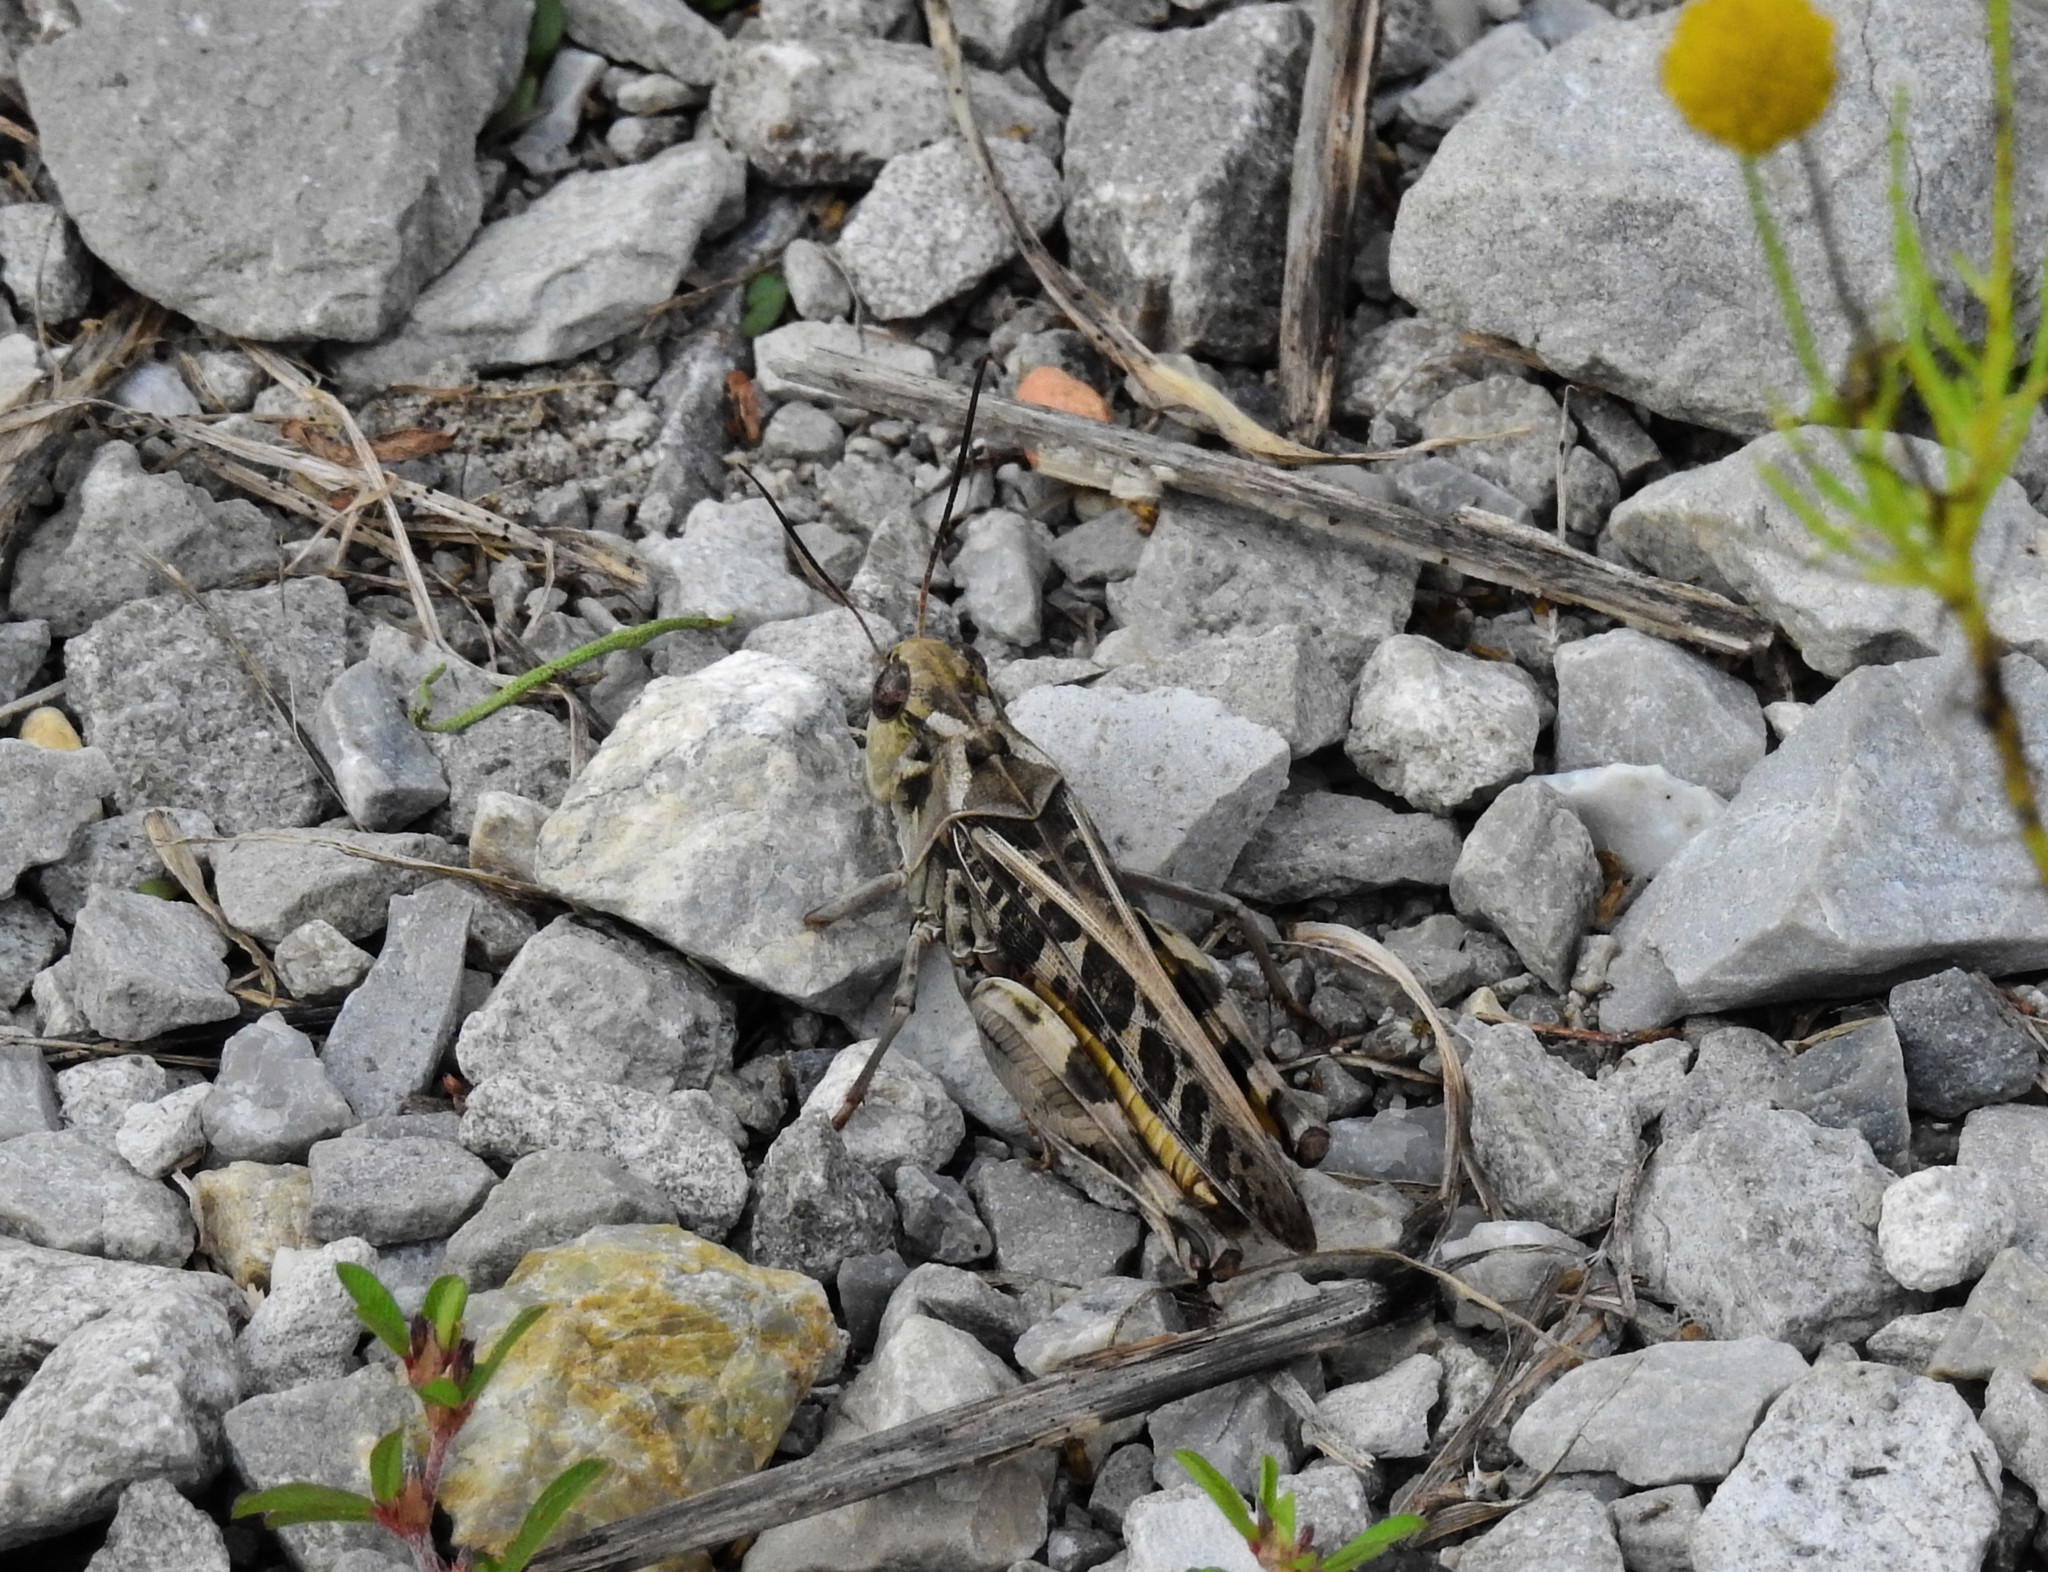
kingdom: Animalia
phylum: Arthropoda
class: Insecta
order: Orthoptera
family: Acrididae
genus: Hippiscus
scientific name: Hippiscus ocelote
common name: Wrinkled grasshopper
